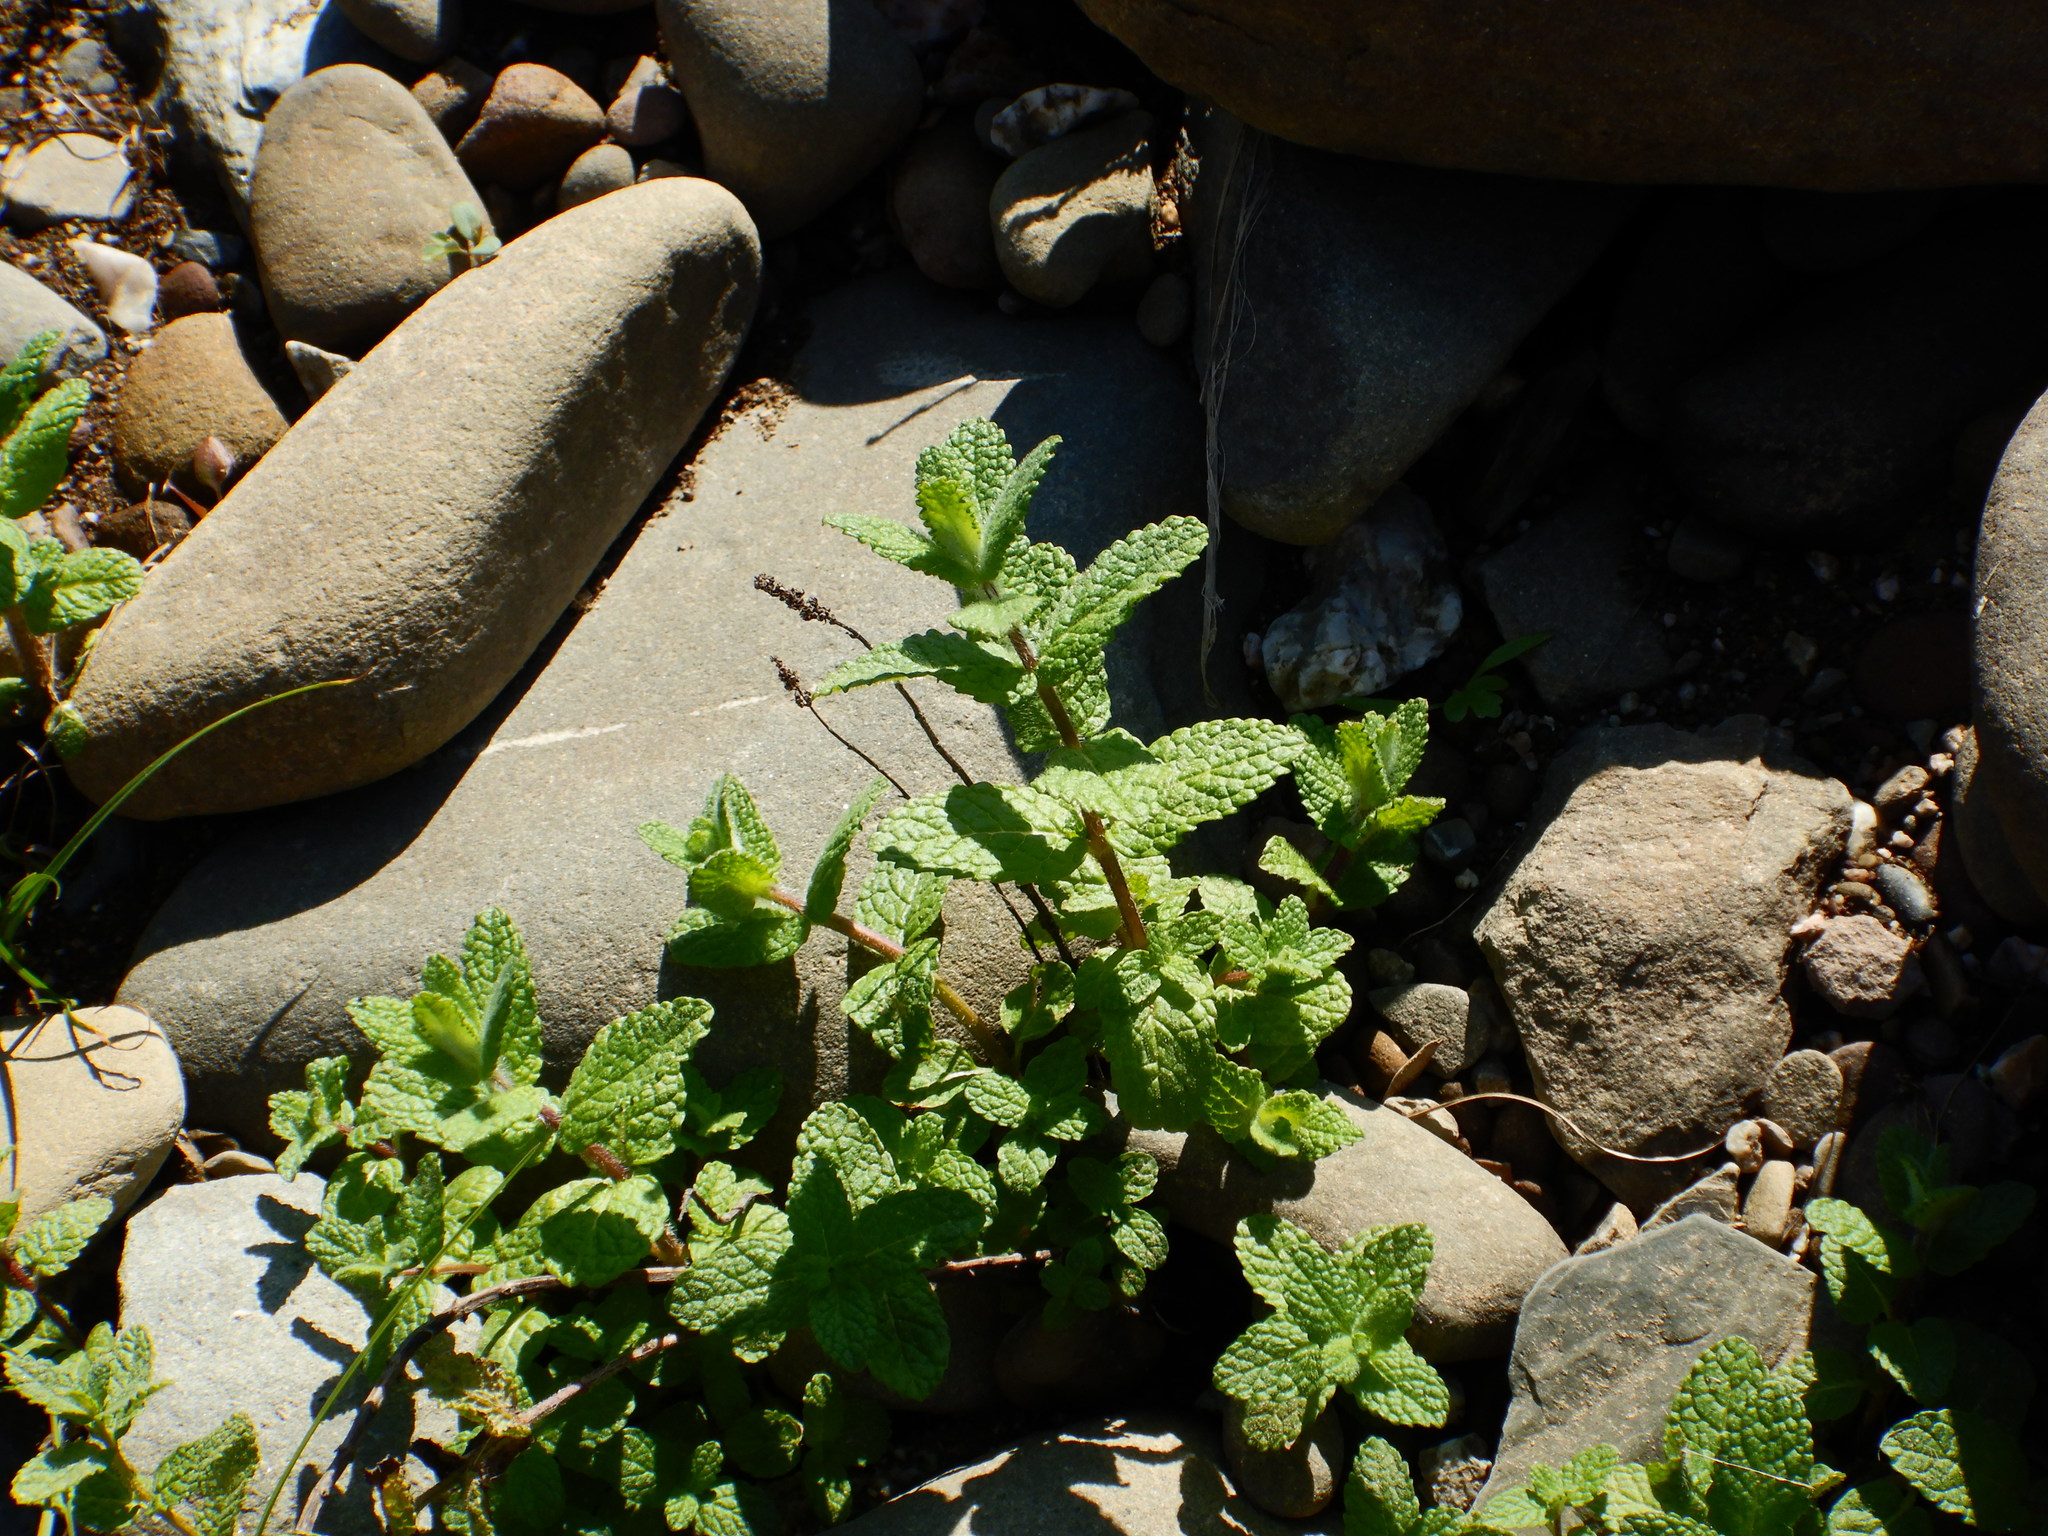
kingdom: Plantae
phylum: Tracheophyta
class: Magnoliopsida
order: Lamiales
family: Lamiaceae
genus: Mentha
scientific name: Mentha suaveolens
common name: Apple mint
